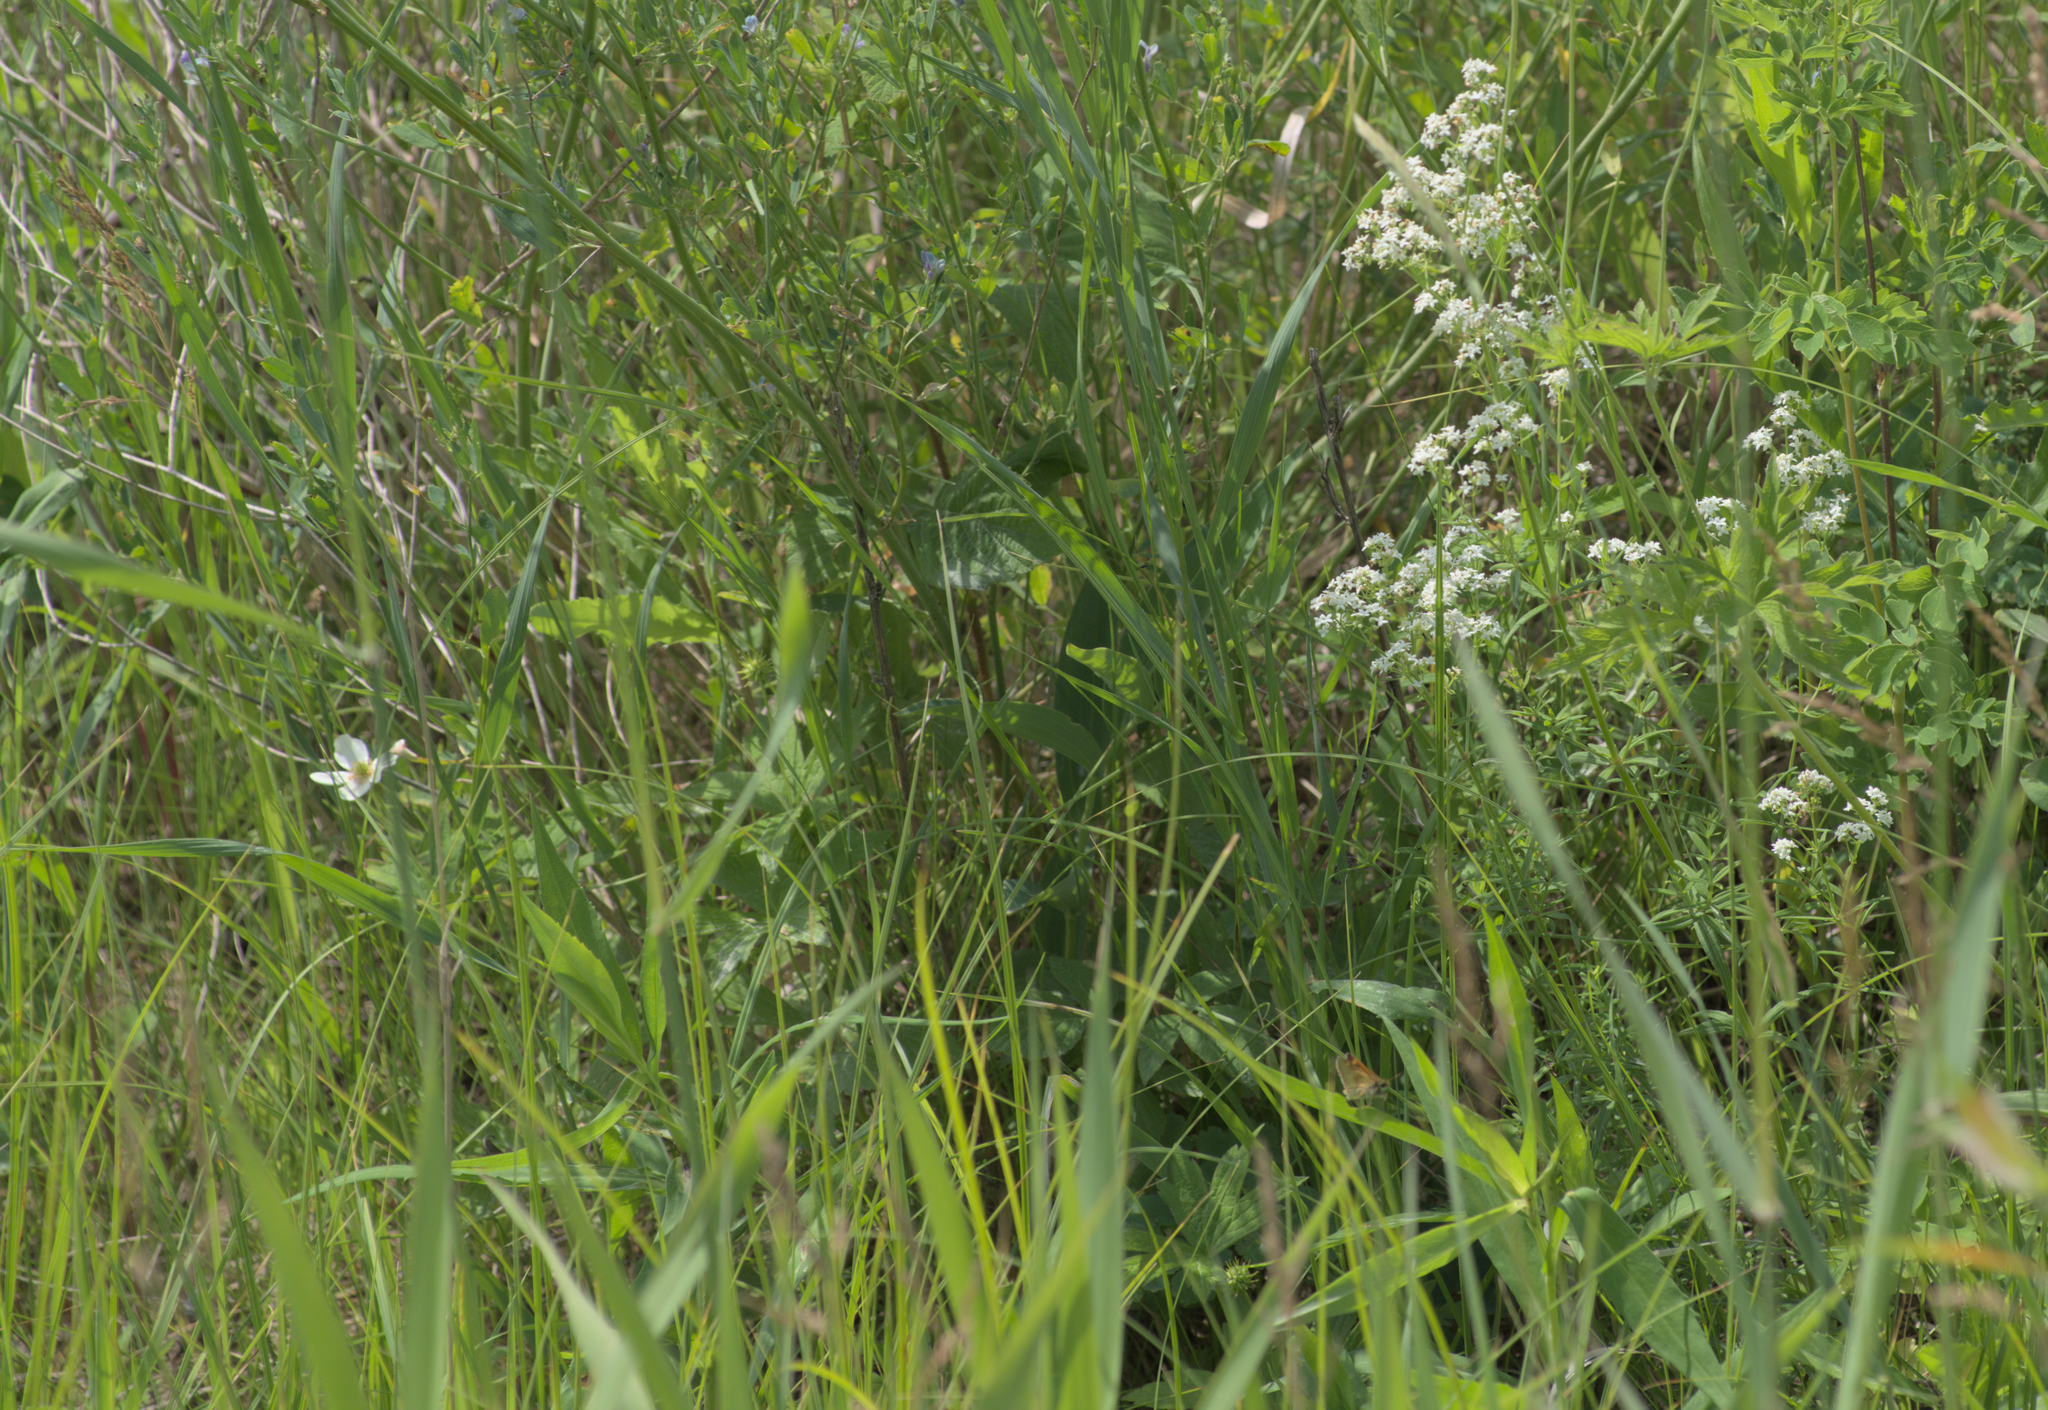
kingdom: Plantae
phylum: Tracheophyta
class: Magnoliopsida
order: Gentianales
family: Rubiaceae
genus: Galium
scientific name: Galium boreale
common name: Northern bedstraw
